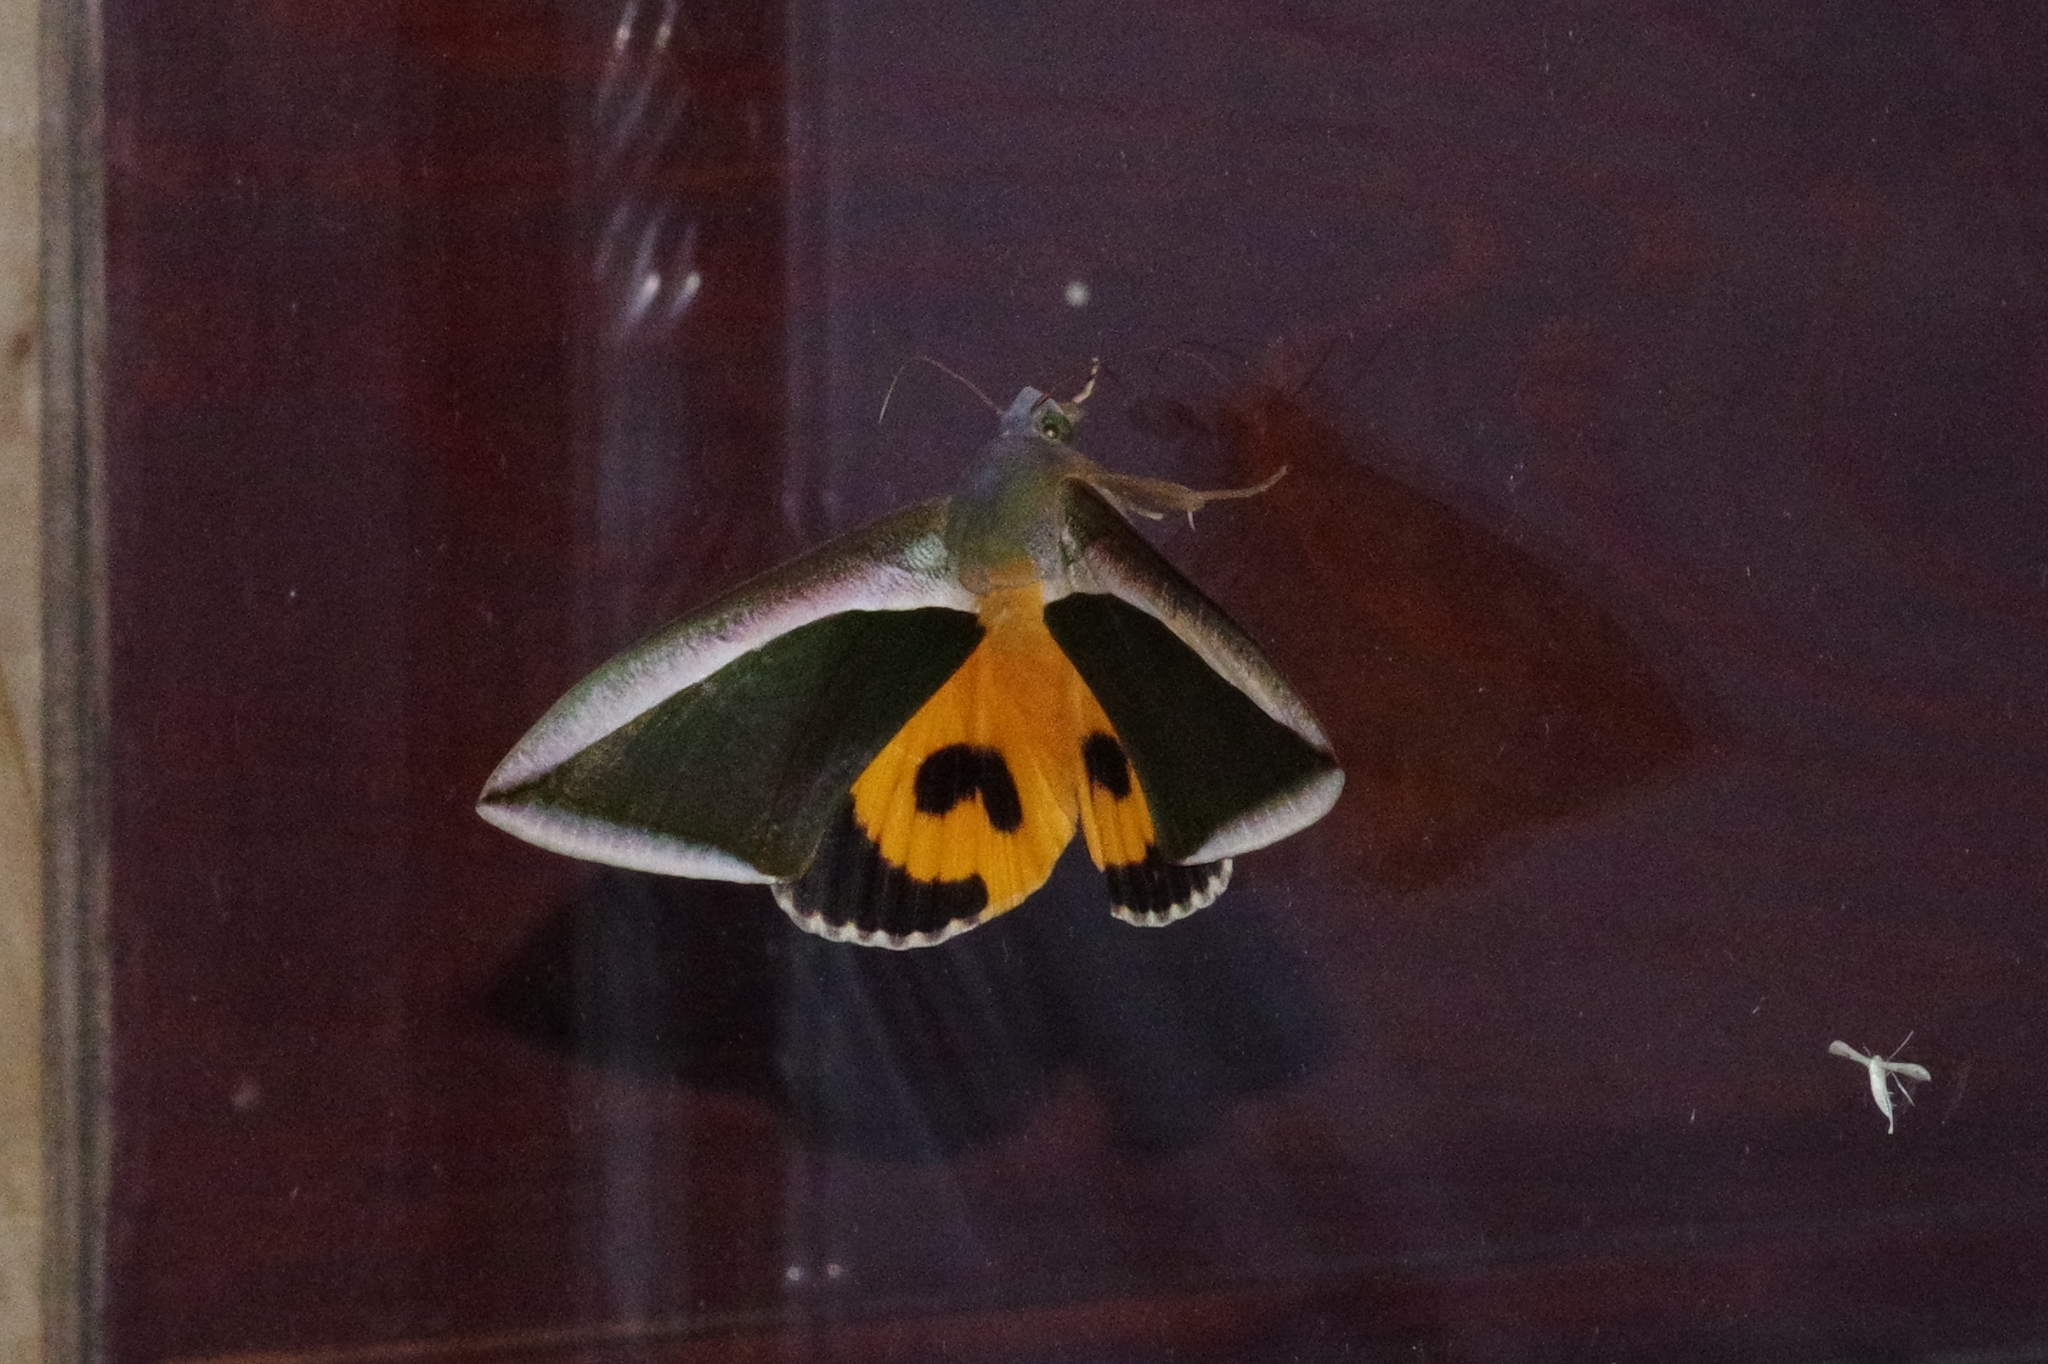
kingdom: Animalia
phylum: Arthropoda
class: Insecta
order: Lepidoptera
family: Erebidae
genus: Eudocima
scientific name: Eudocima salaminia
